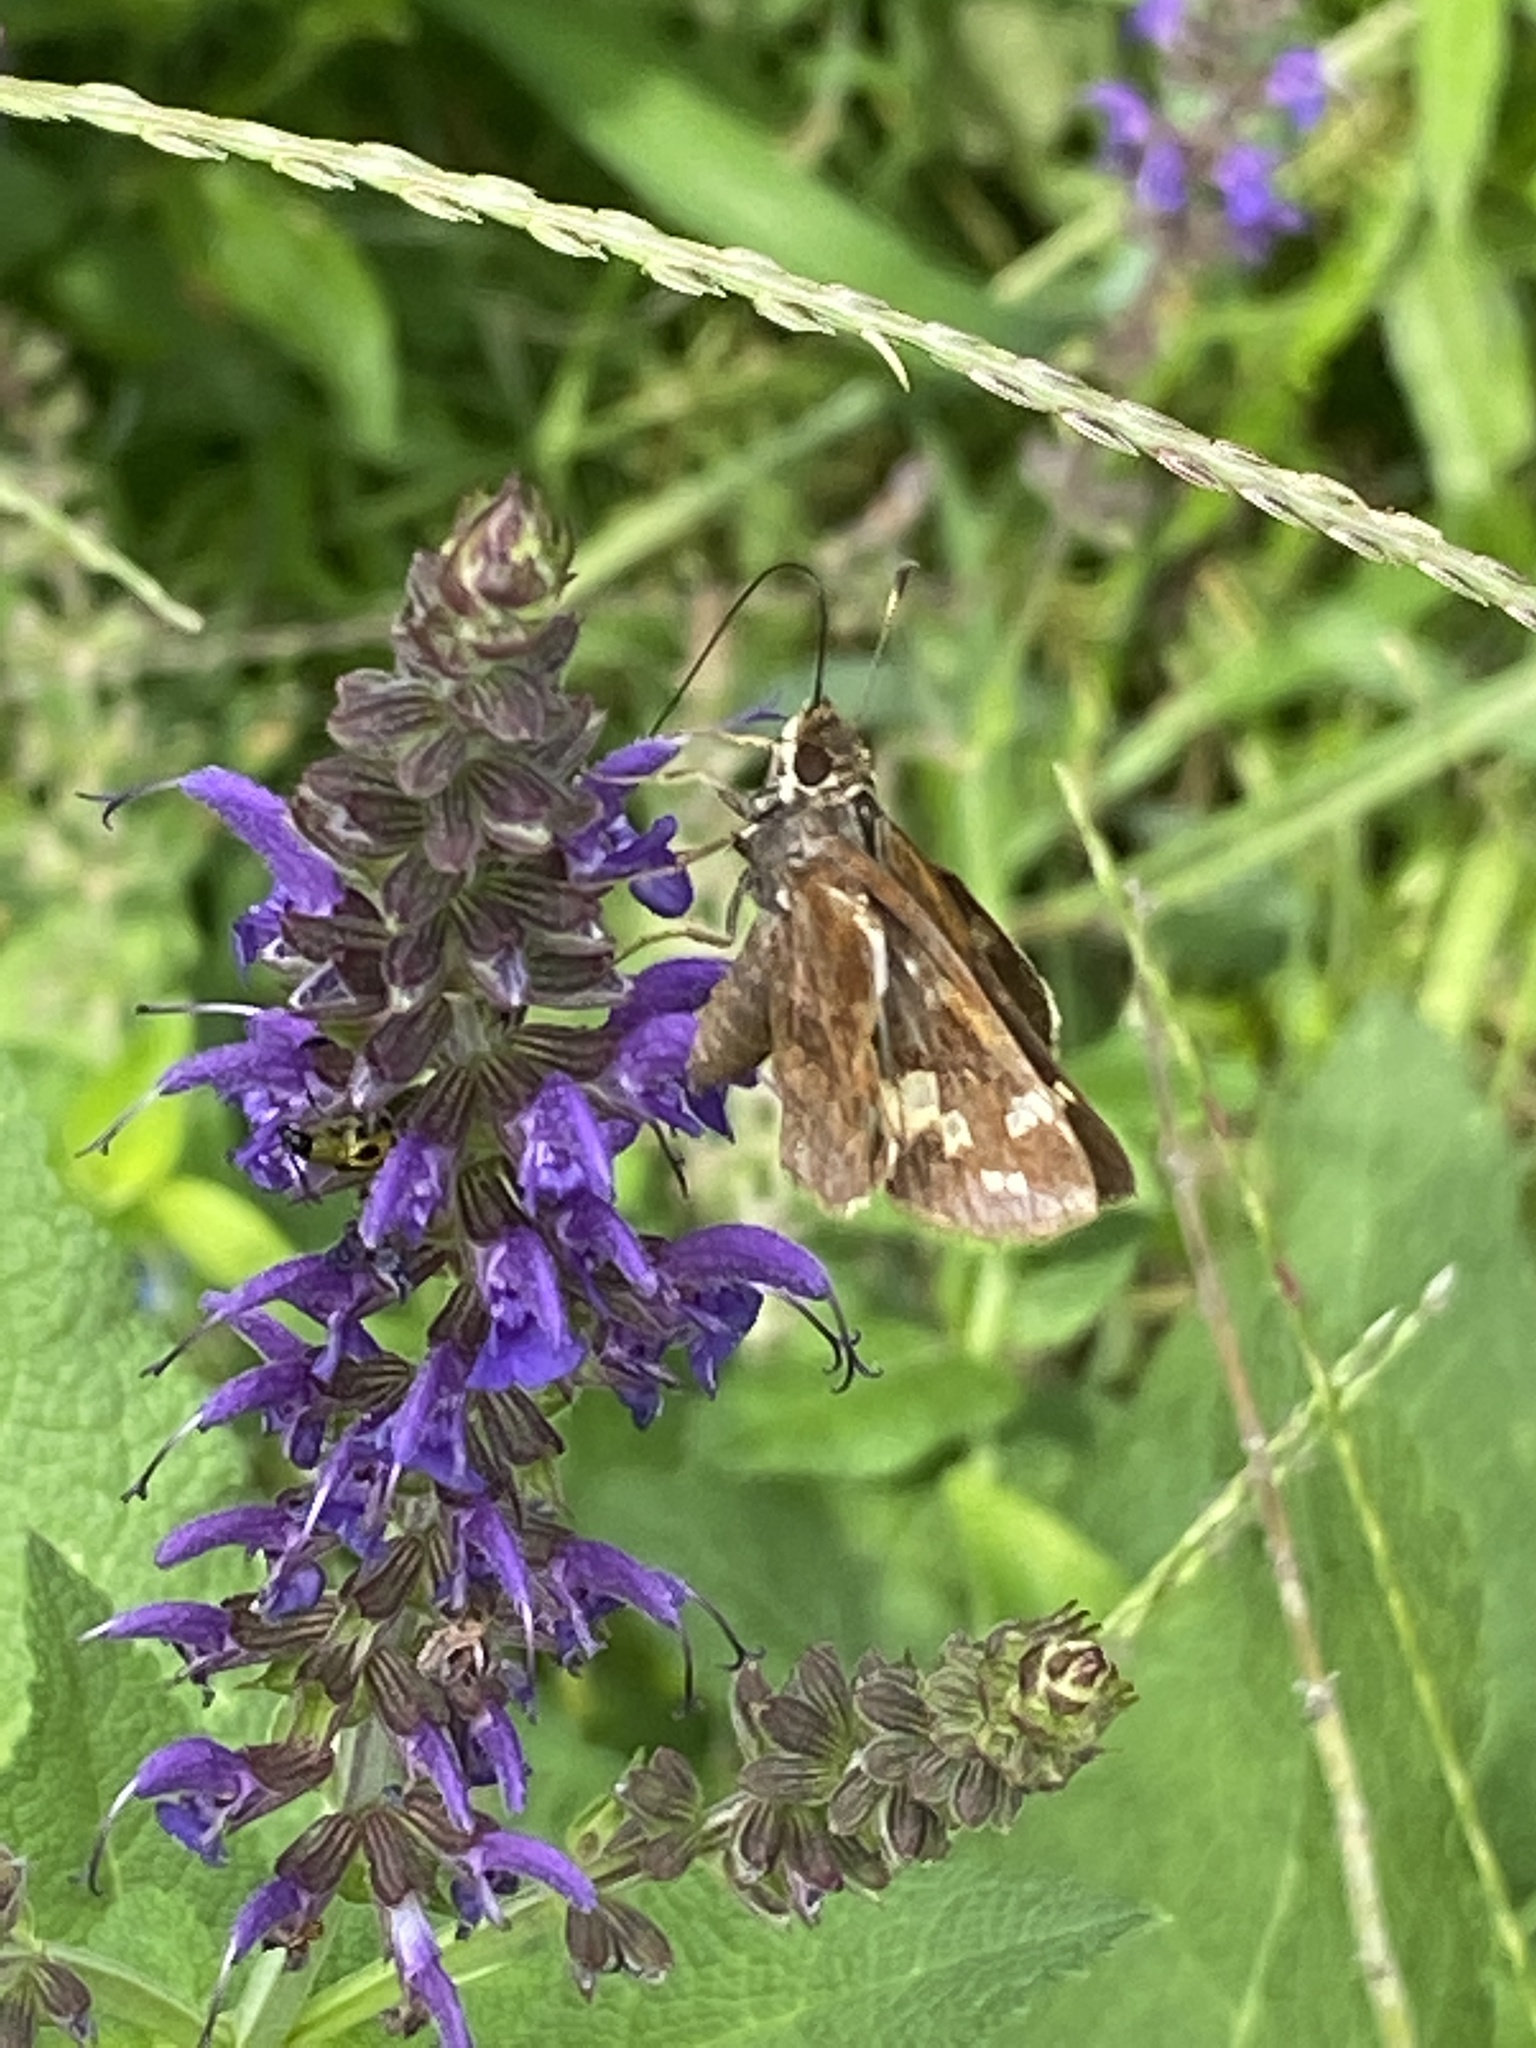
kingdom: Animalia
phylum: Arthropoda
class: Insecta
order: Lepidoptera
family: Hesperiidae
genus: Lon
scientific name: Lon zabulon
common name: Zabulon skipper
